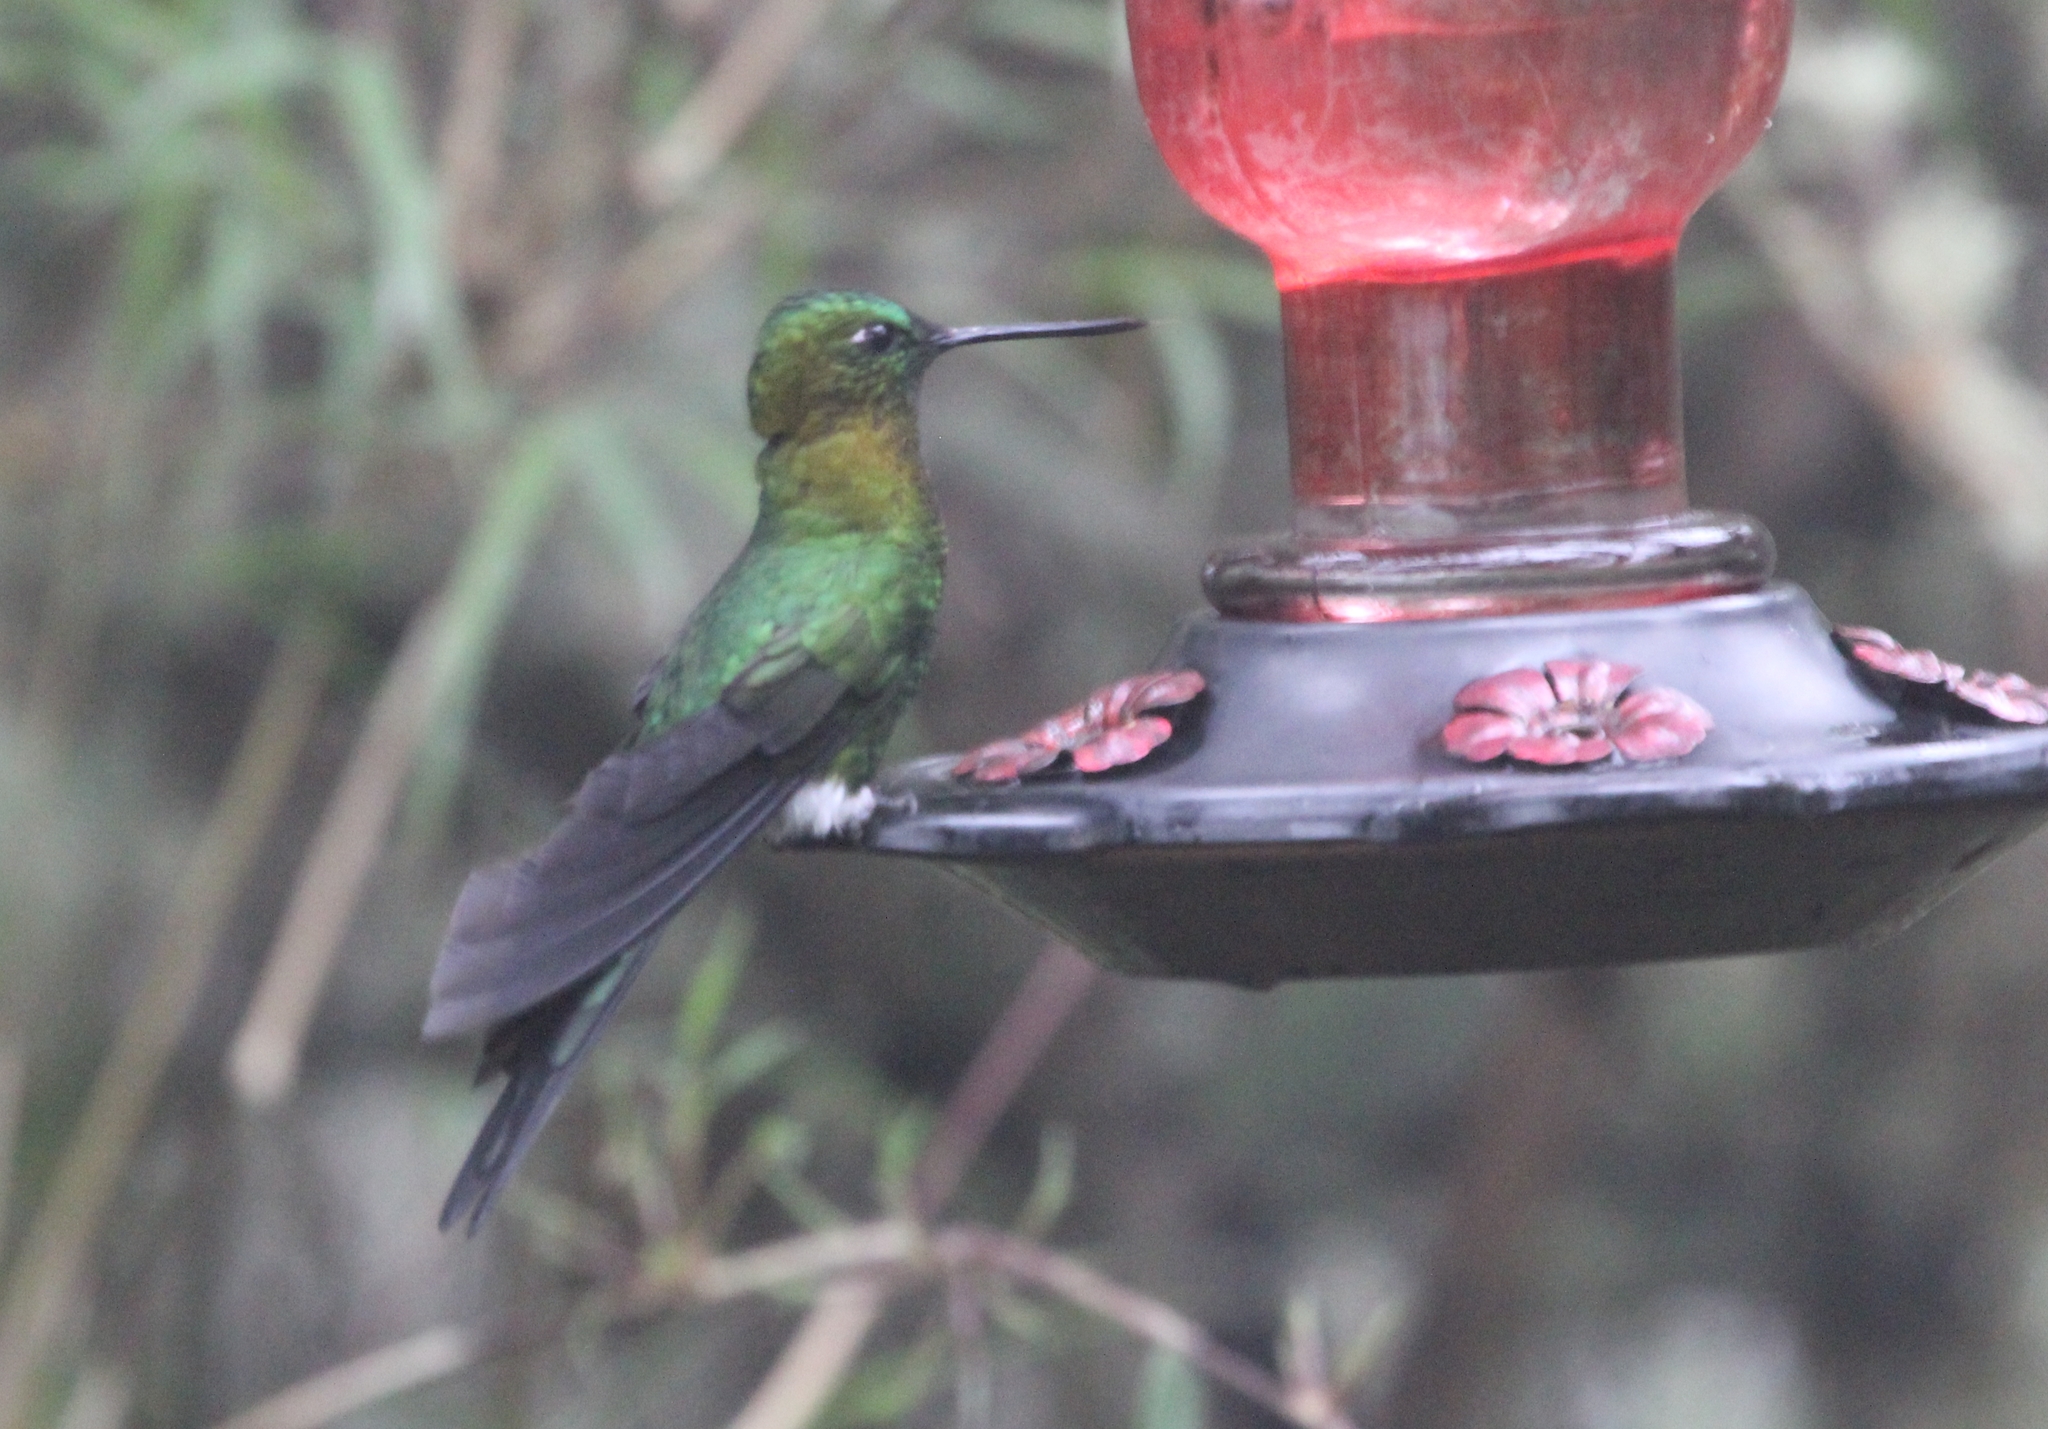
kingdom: Animalia
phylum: Chordata
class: Aves
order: Apodiformes
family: Trochilidae
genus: Eriocnemis
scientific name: Eriocnemis mosquera
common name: Golden-breasted puffleg
